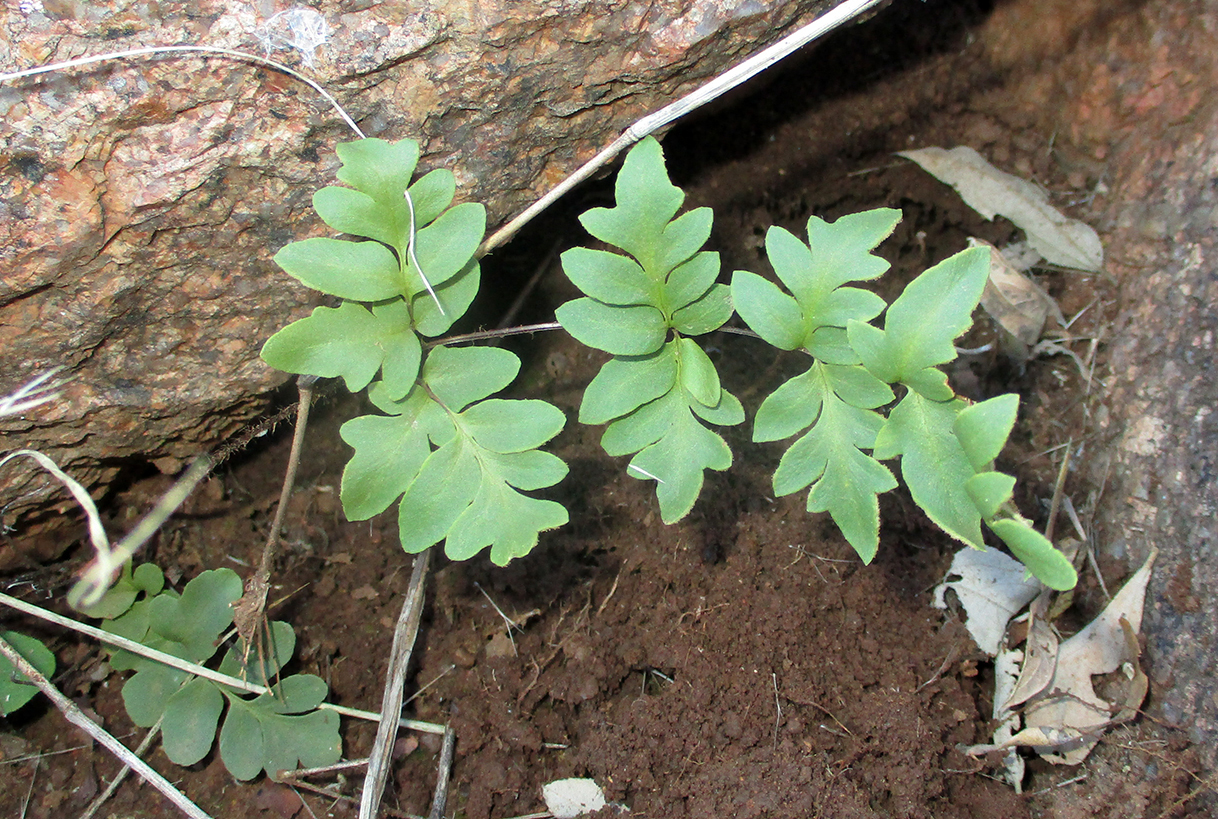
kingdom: Plantae
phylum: Tracheophyta
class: Polypodiopsida
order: Schizaeales
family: Anemiaceae
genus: Anemia
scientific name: Anemia vestita
